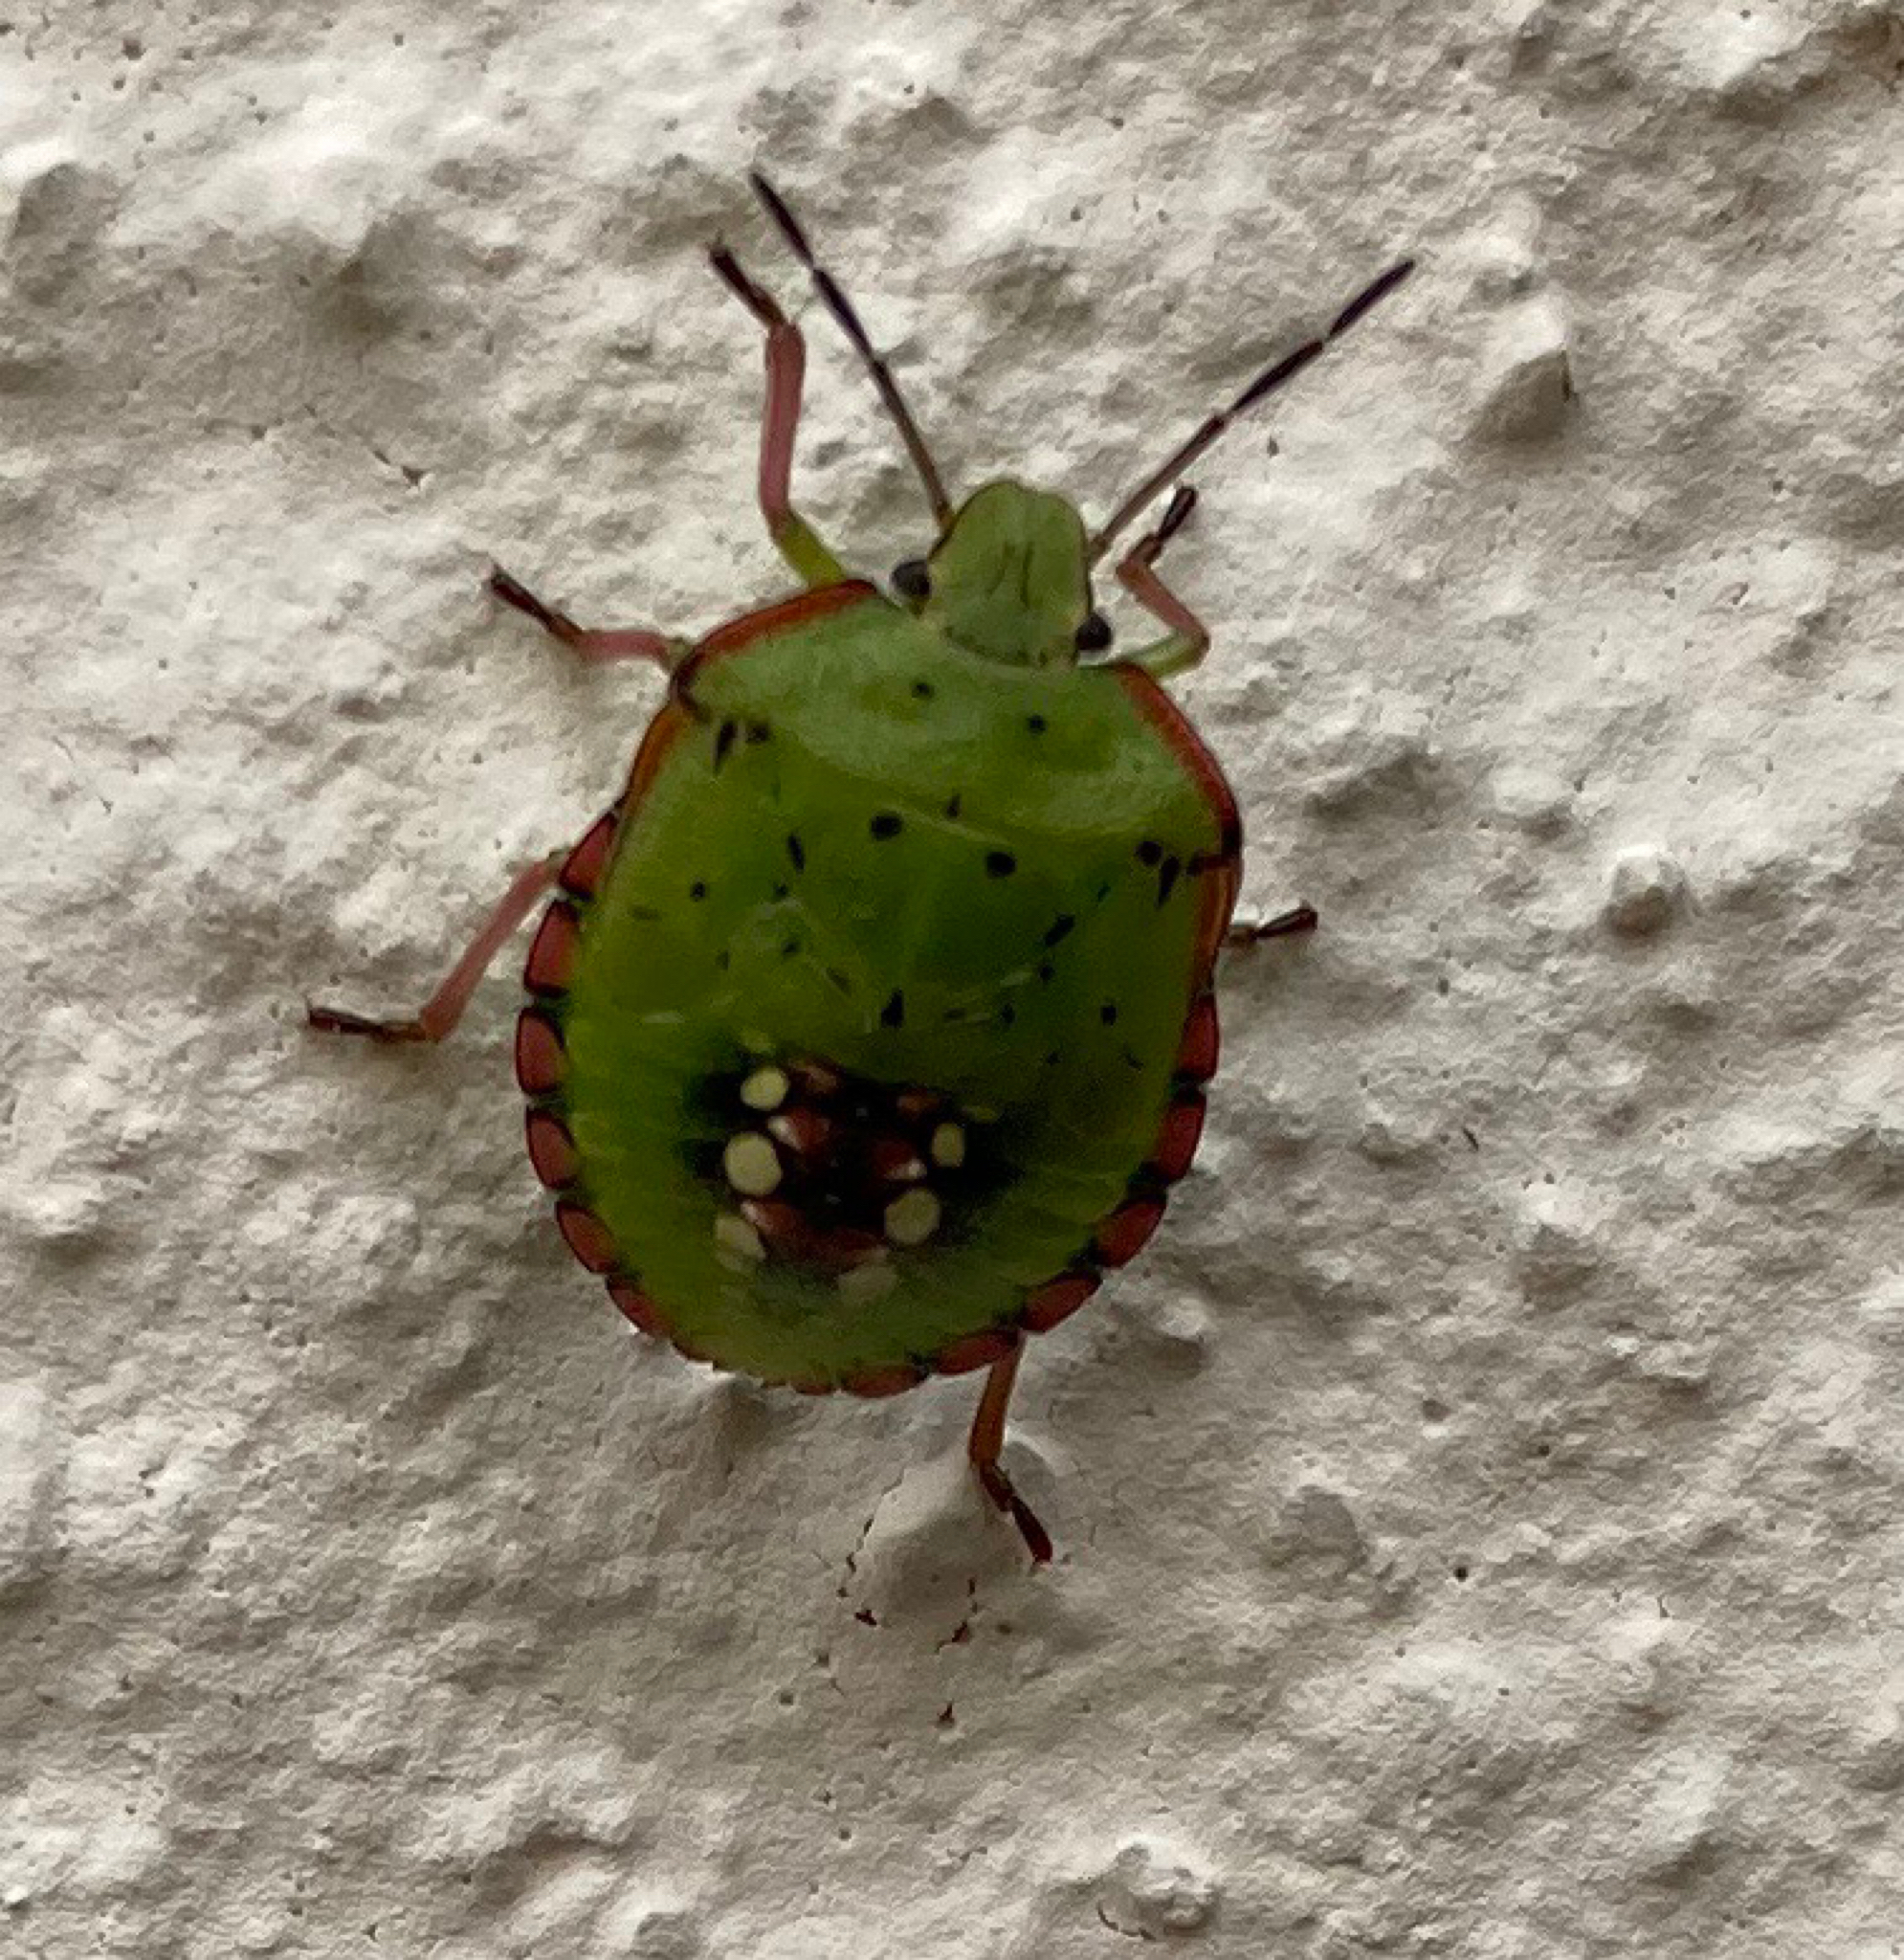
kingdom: Animalia
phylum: Arthropoda
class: Insecta
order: Hemiptera
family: Pentatomidae
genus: Nezara
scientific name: Nezara viridula
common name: Southern green stink bug
